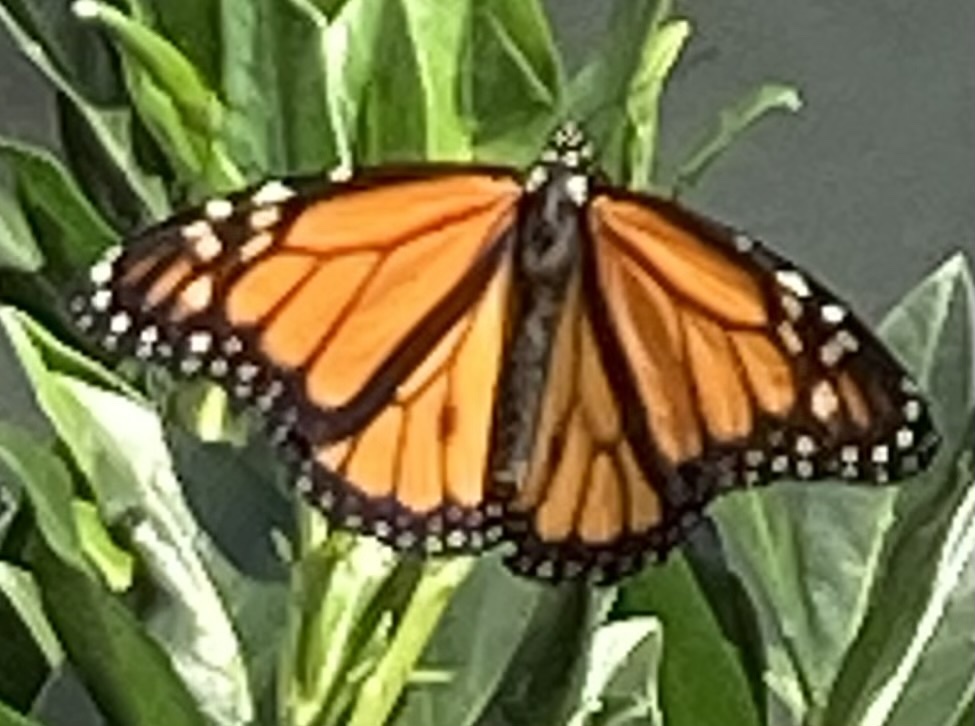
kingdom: Animalia
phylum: Arthropoda
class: Insecta
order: Lepidoptera
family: Nymphalidae
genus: Danaus
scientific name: Danaus plexippus
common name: Monarch
